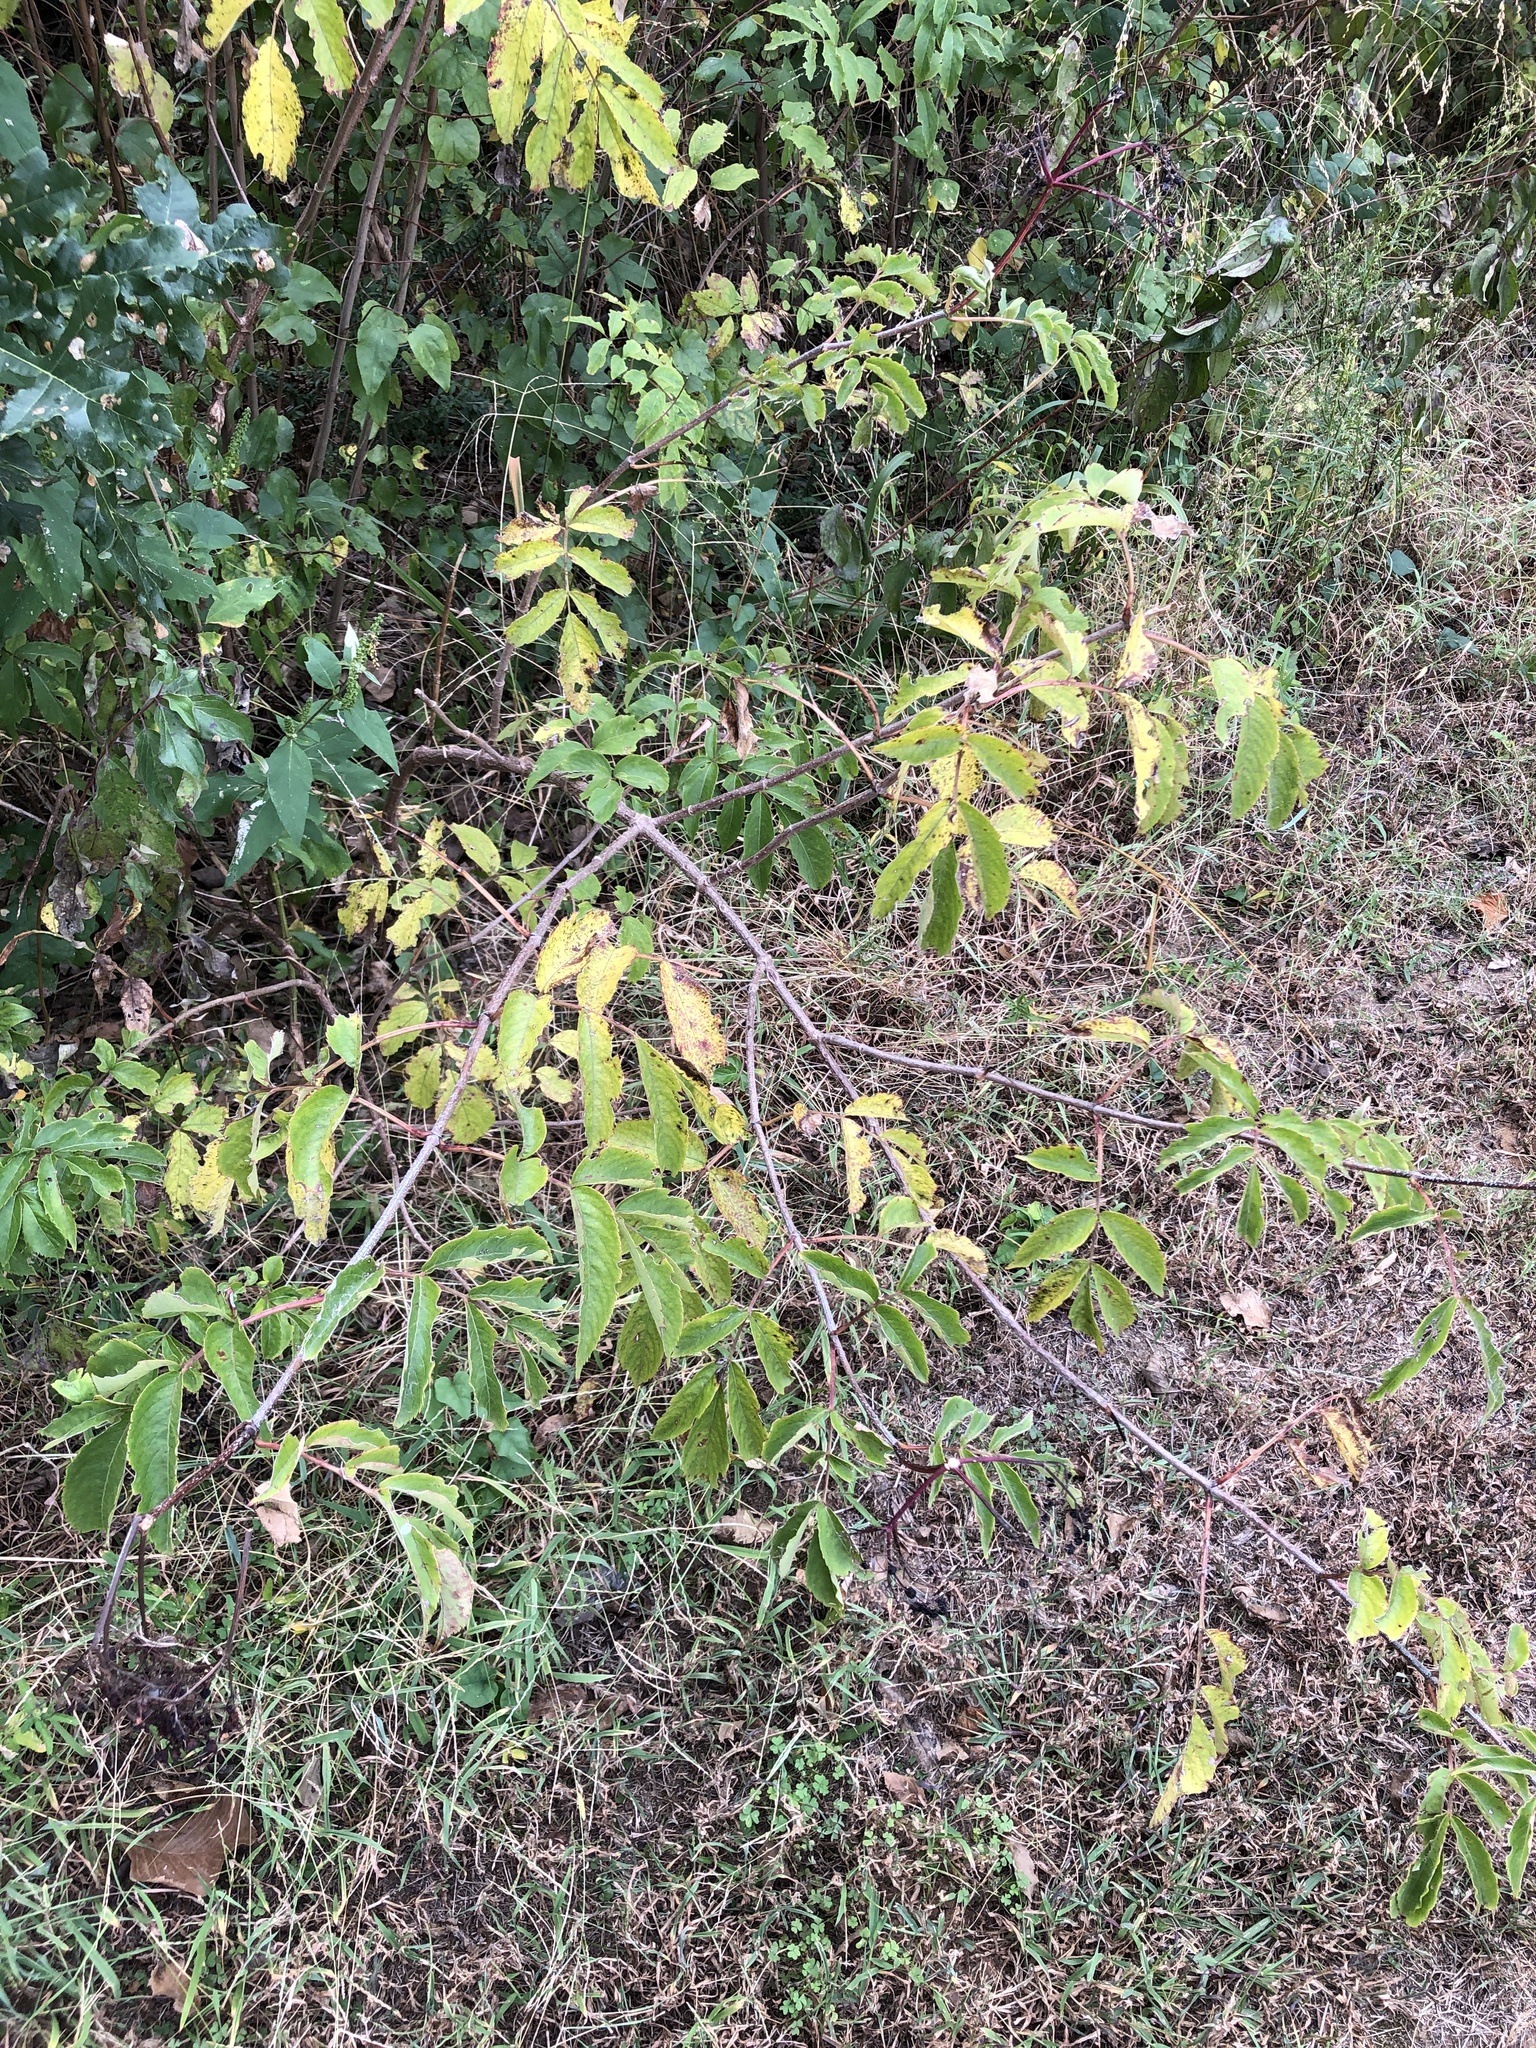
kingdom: Plantae
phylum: Tracheophyta
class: Magnoliopsida
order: Dipsacales
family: Viburnaceae
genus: Sambucus
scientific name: Sambucus canadensis
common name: American elder
